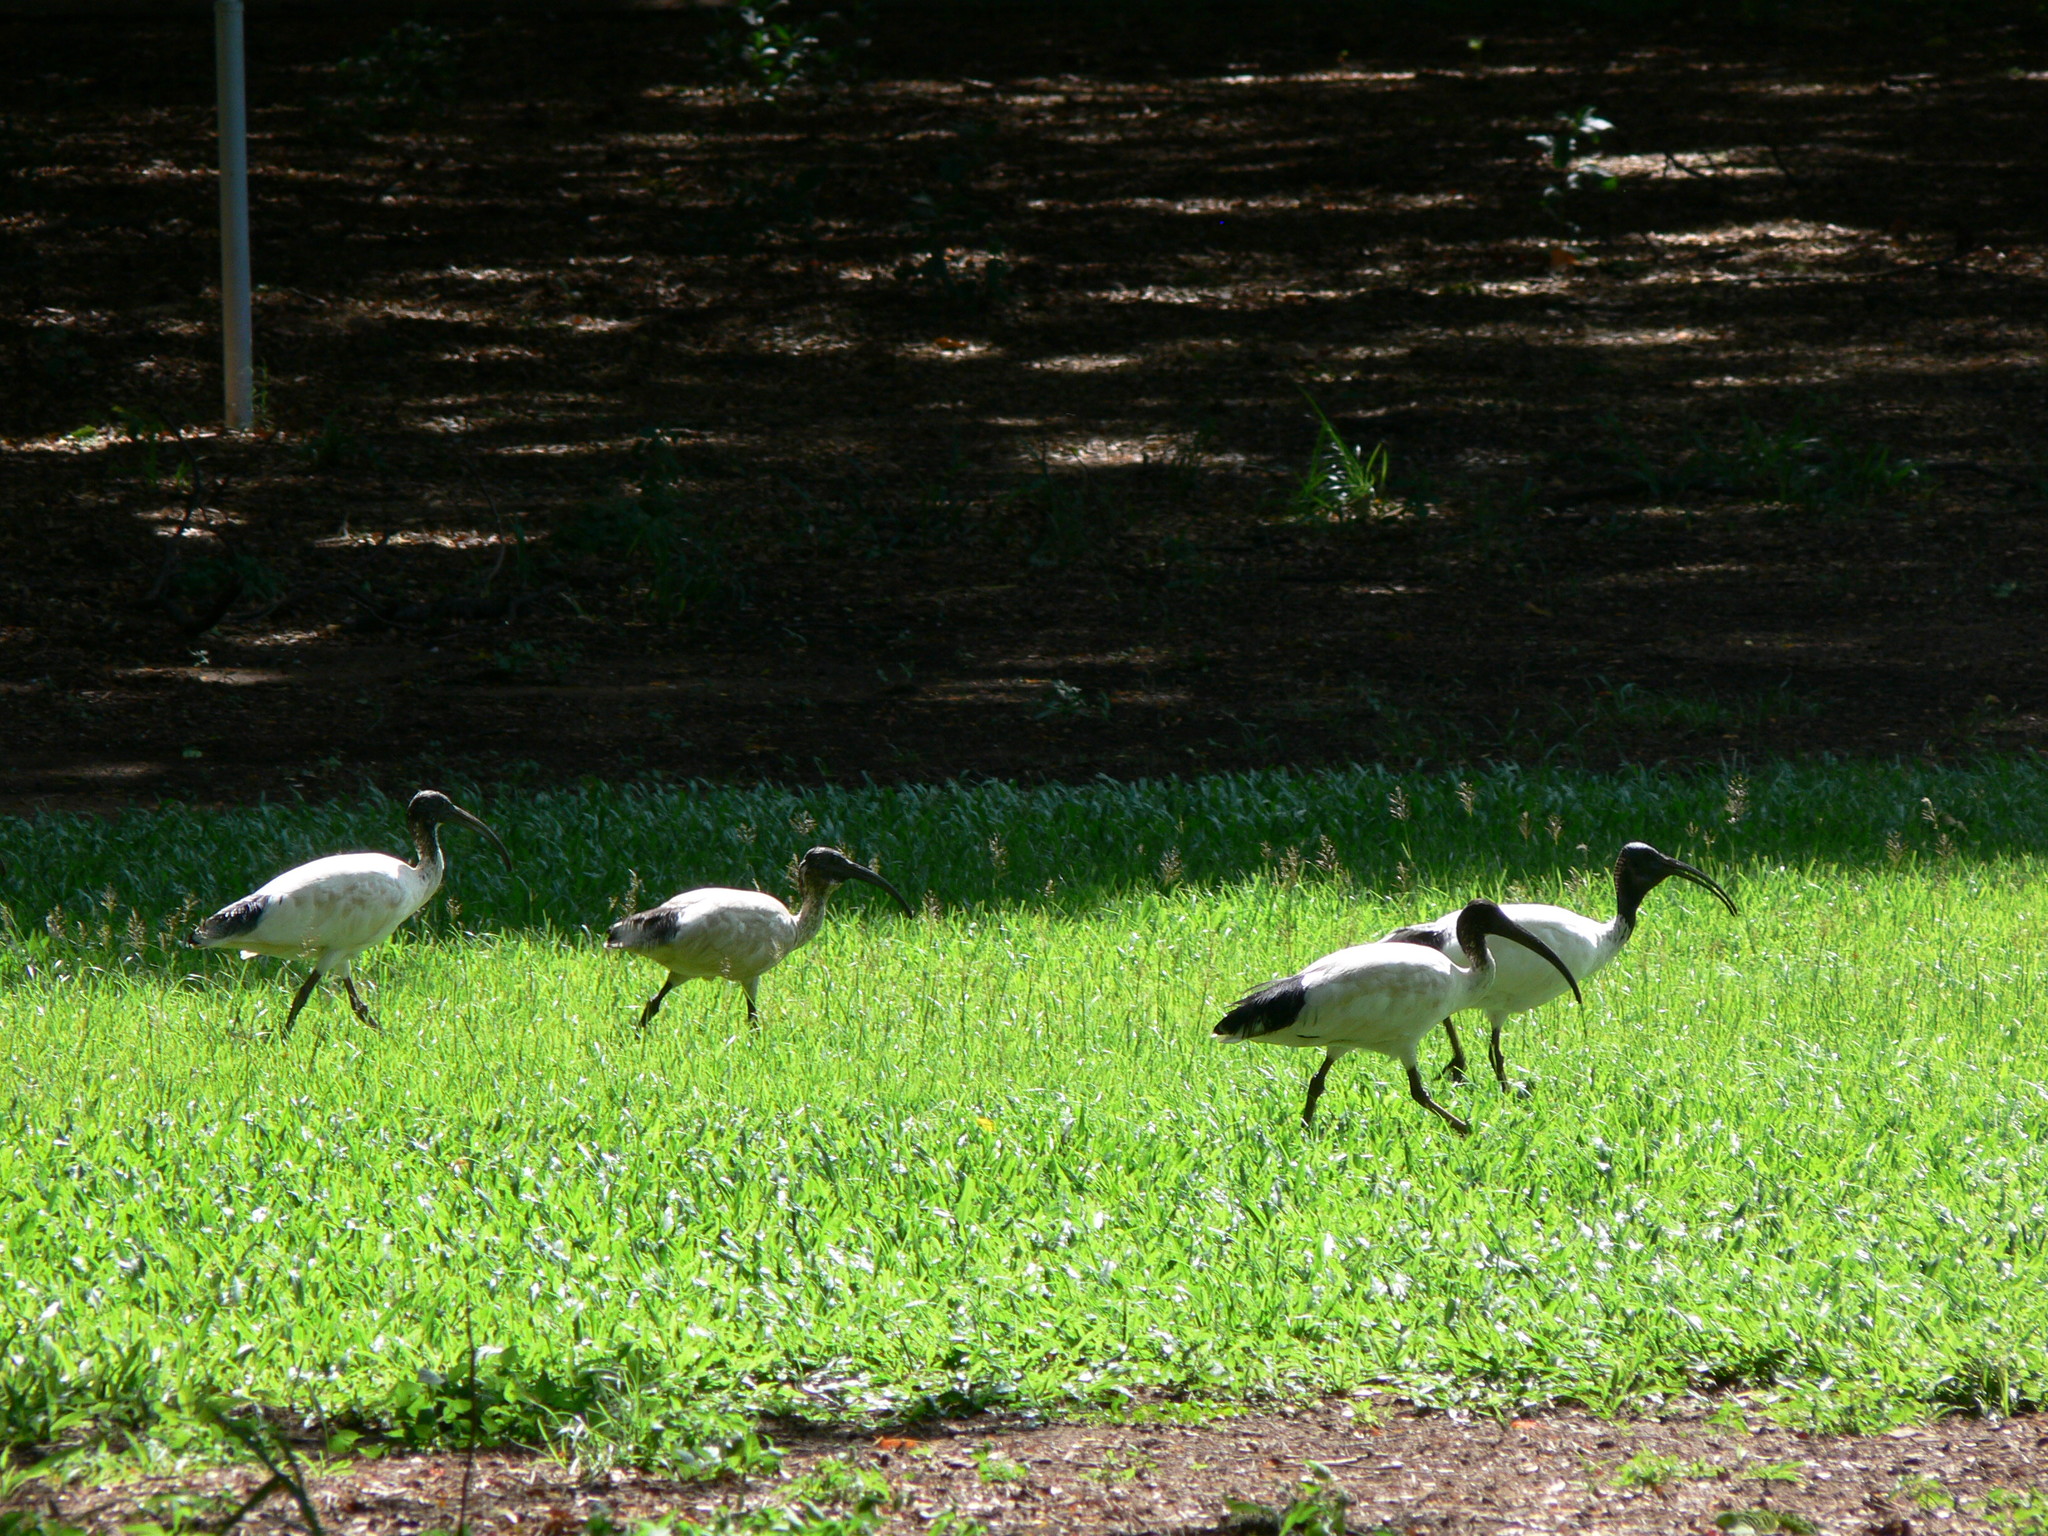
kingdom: Animalia
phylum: Chordata
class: Aves
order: Pelecaniformes
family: Threskiornithidae
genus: Threskiornis
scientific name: Threskiornis molucca
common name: Australian white ibis
